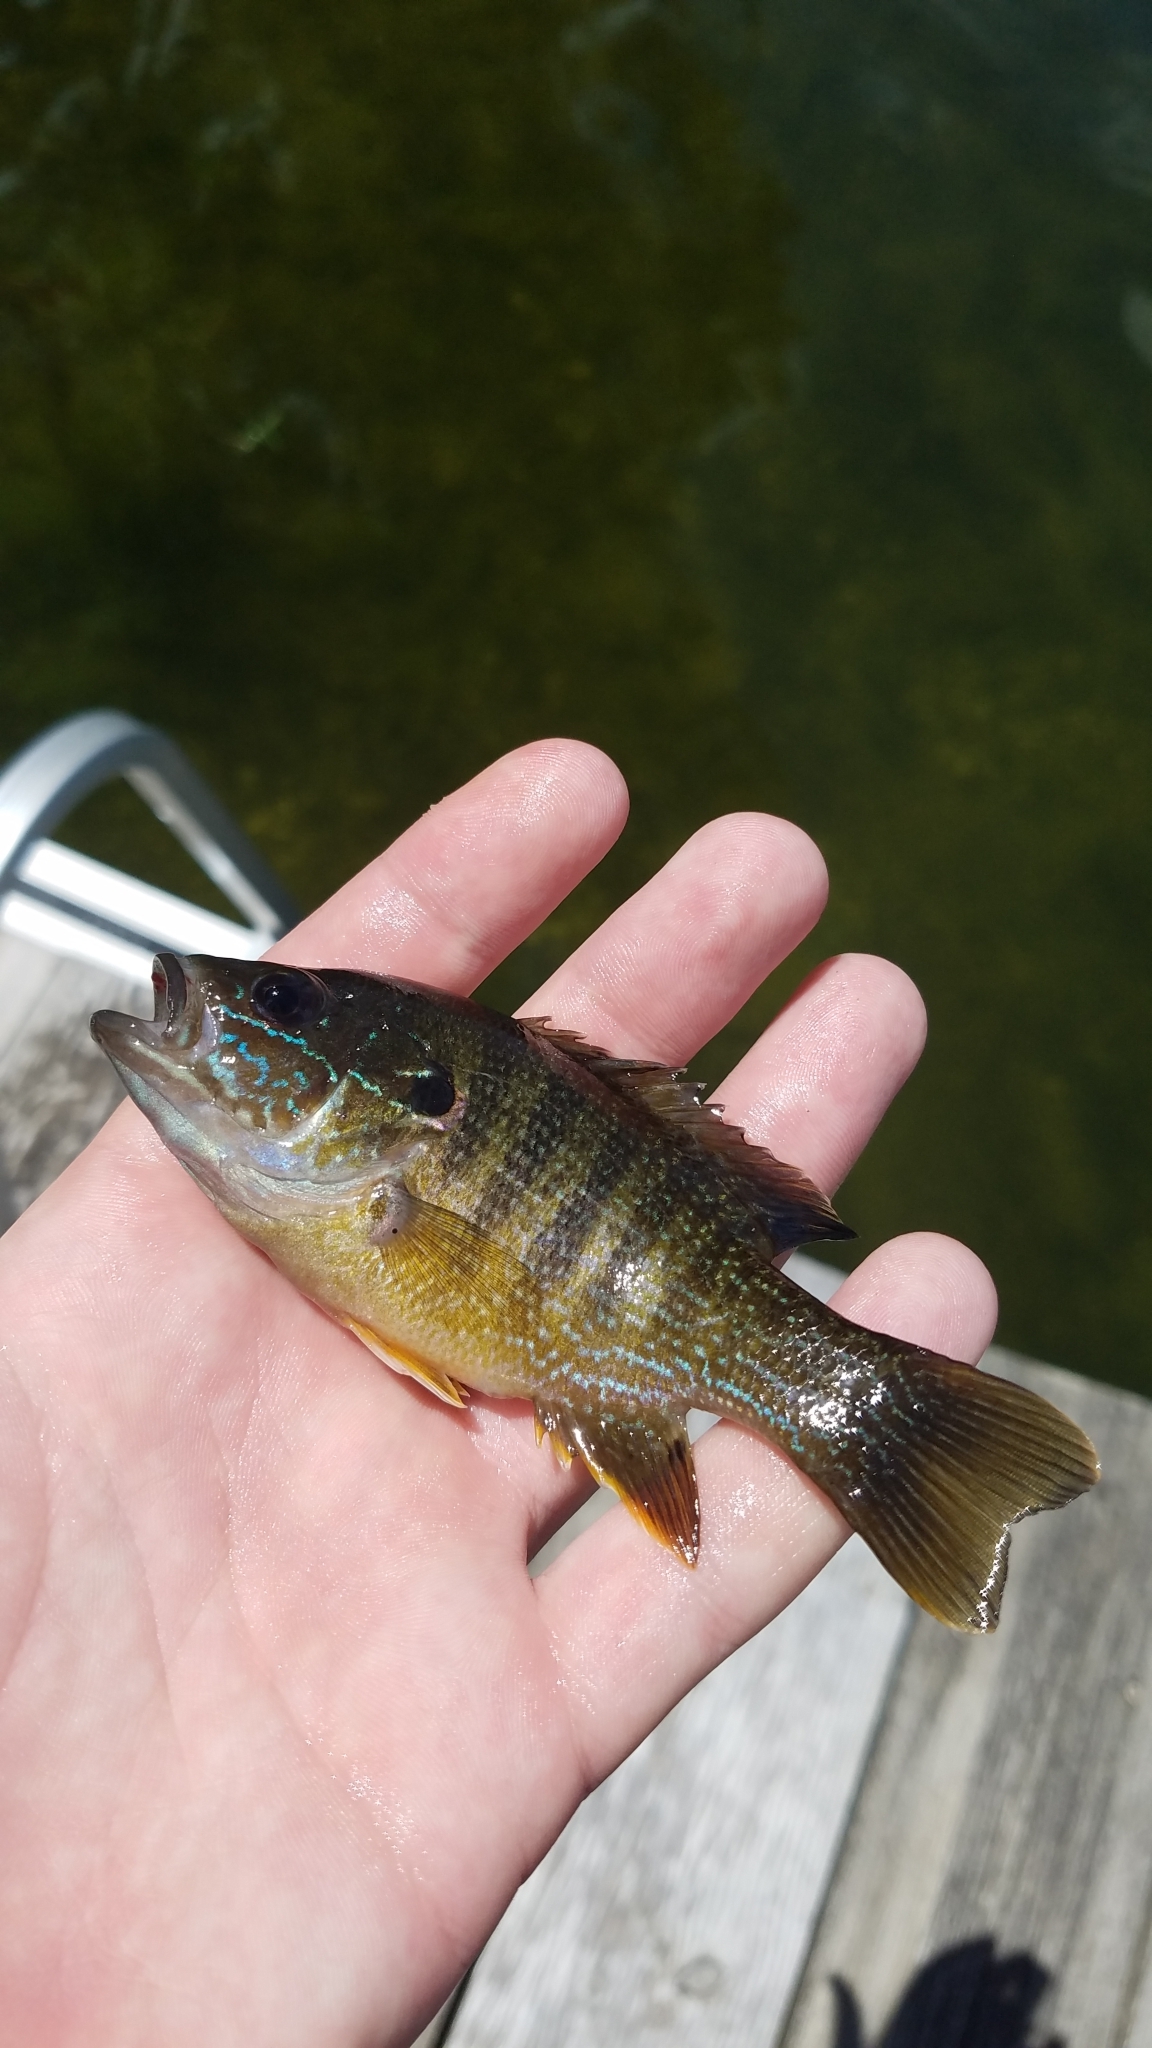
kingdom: Animalia
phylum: Chordata
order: Perciformes
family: Centrarchidae
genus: Lepomis
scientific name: Lepomis cyanellus
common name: Green sunfish
